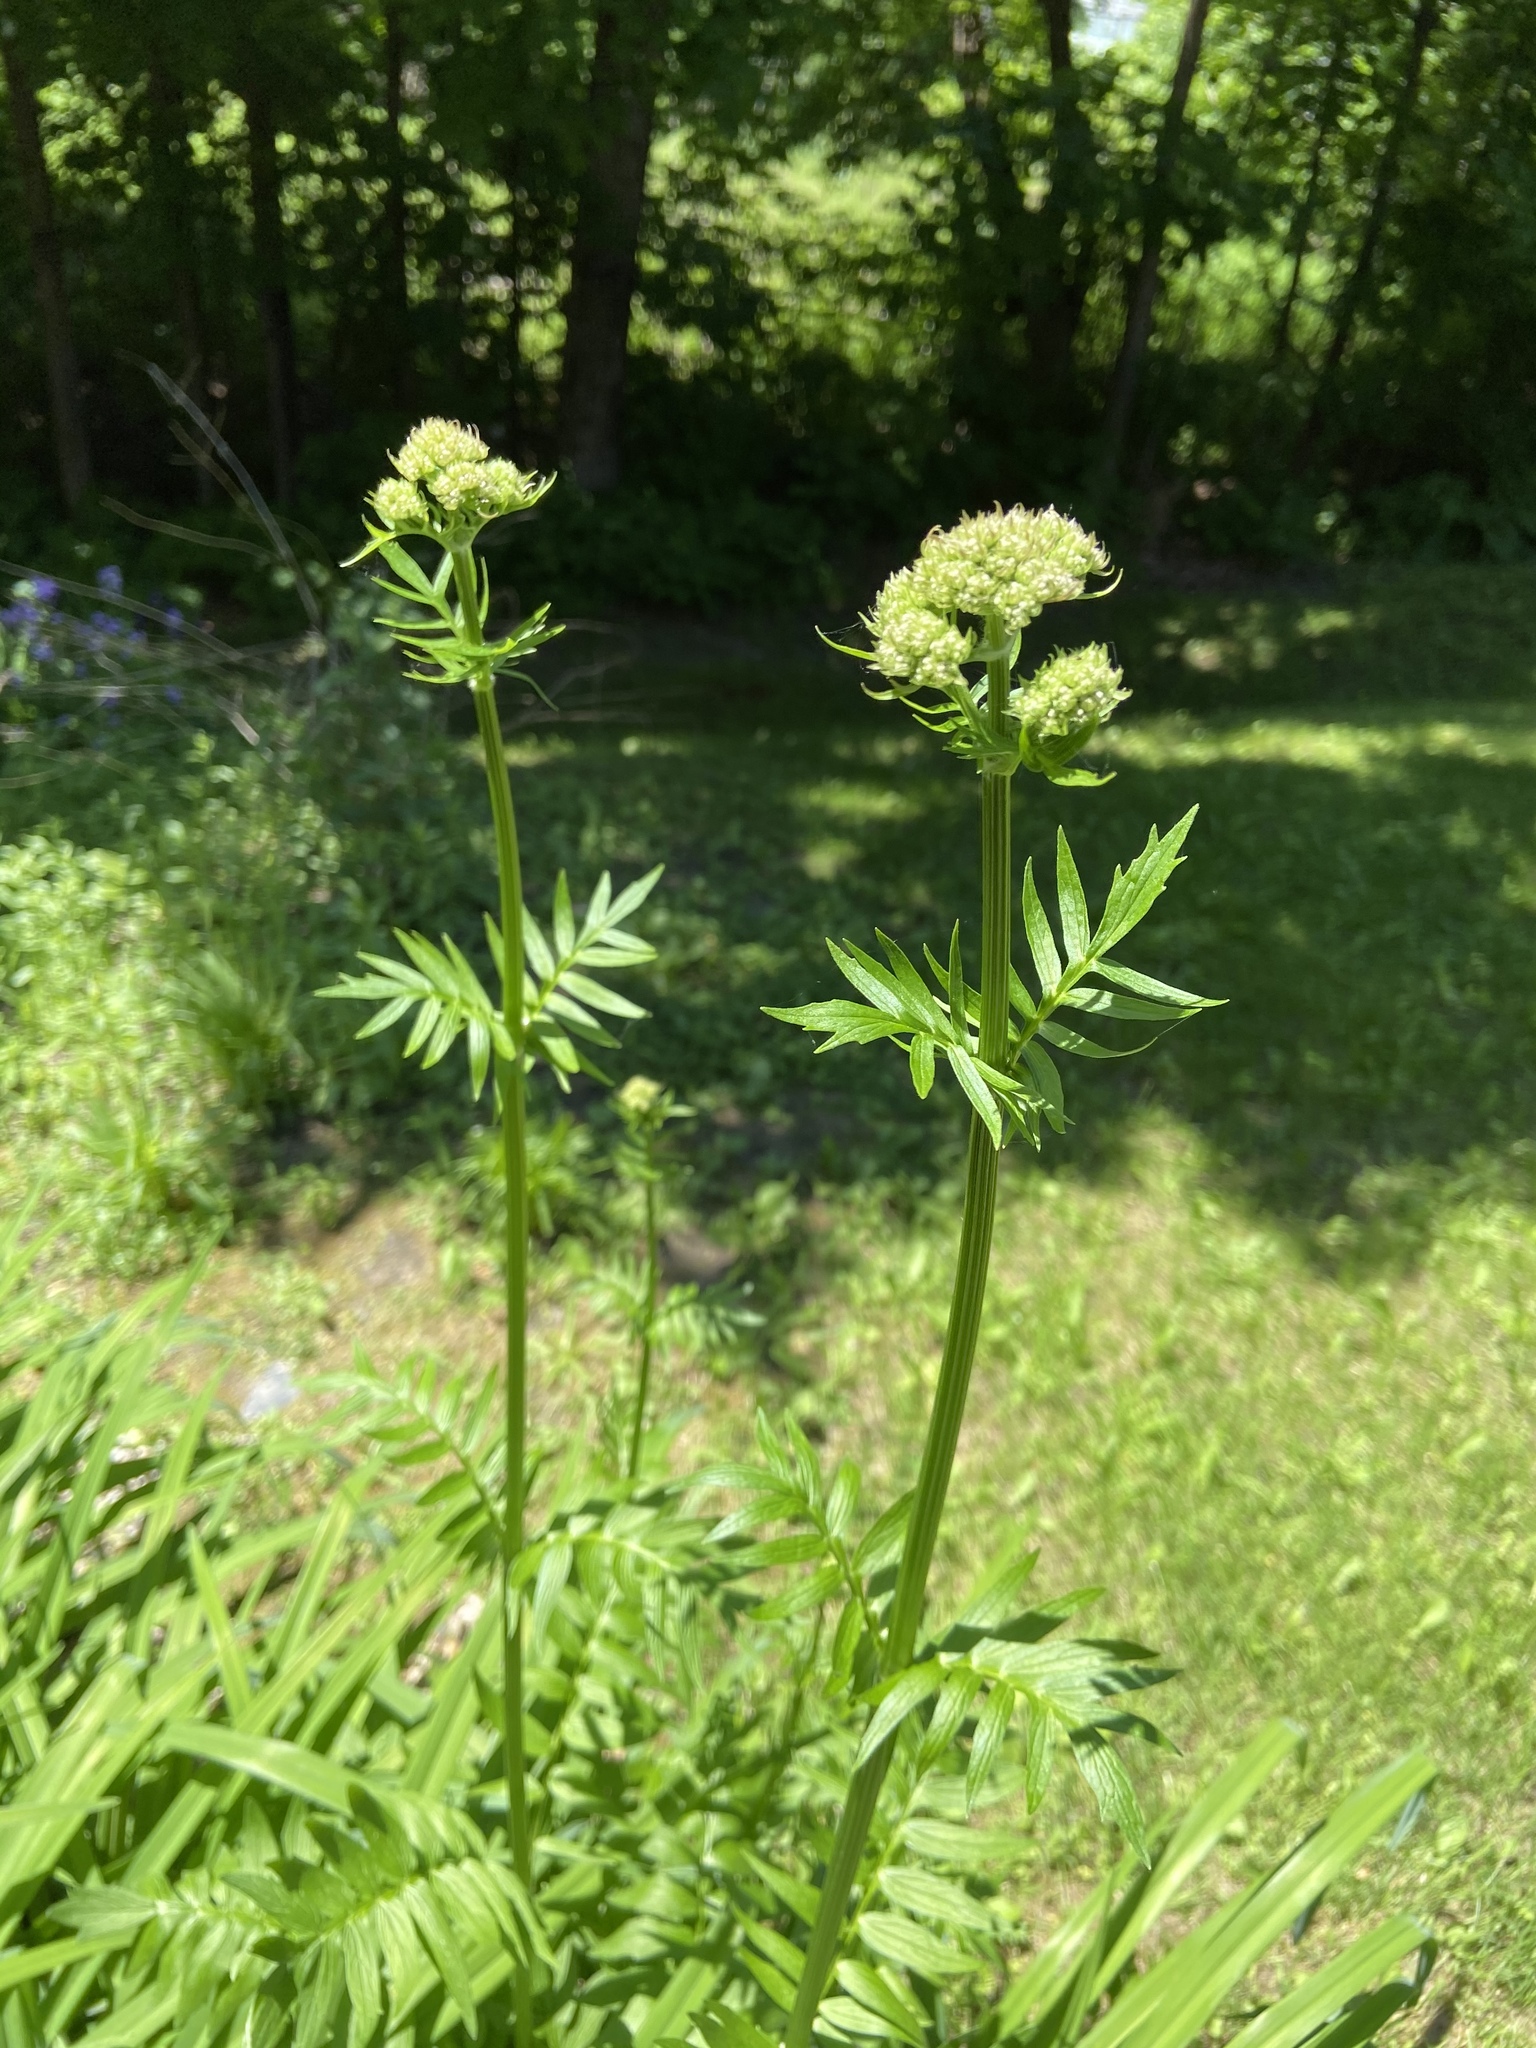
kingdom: Plantae
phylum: Tracheophyta
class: Magnoliopsida
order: Dipsacales
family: Caprifoliaceae
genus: Valeriana
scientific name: Valeriana officinalis
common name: Common valerian
